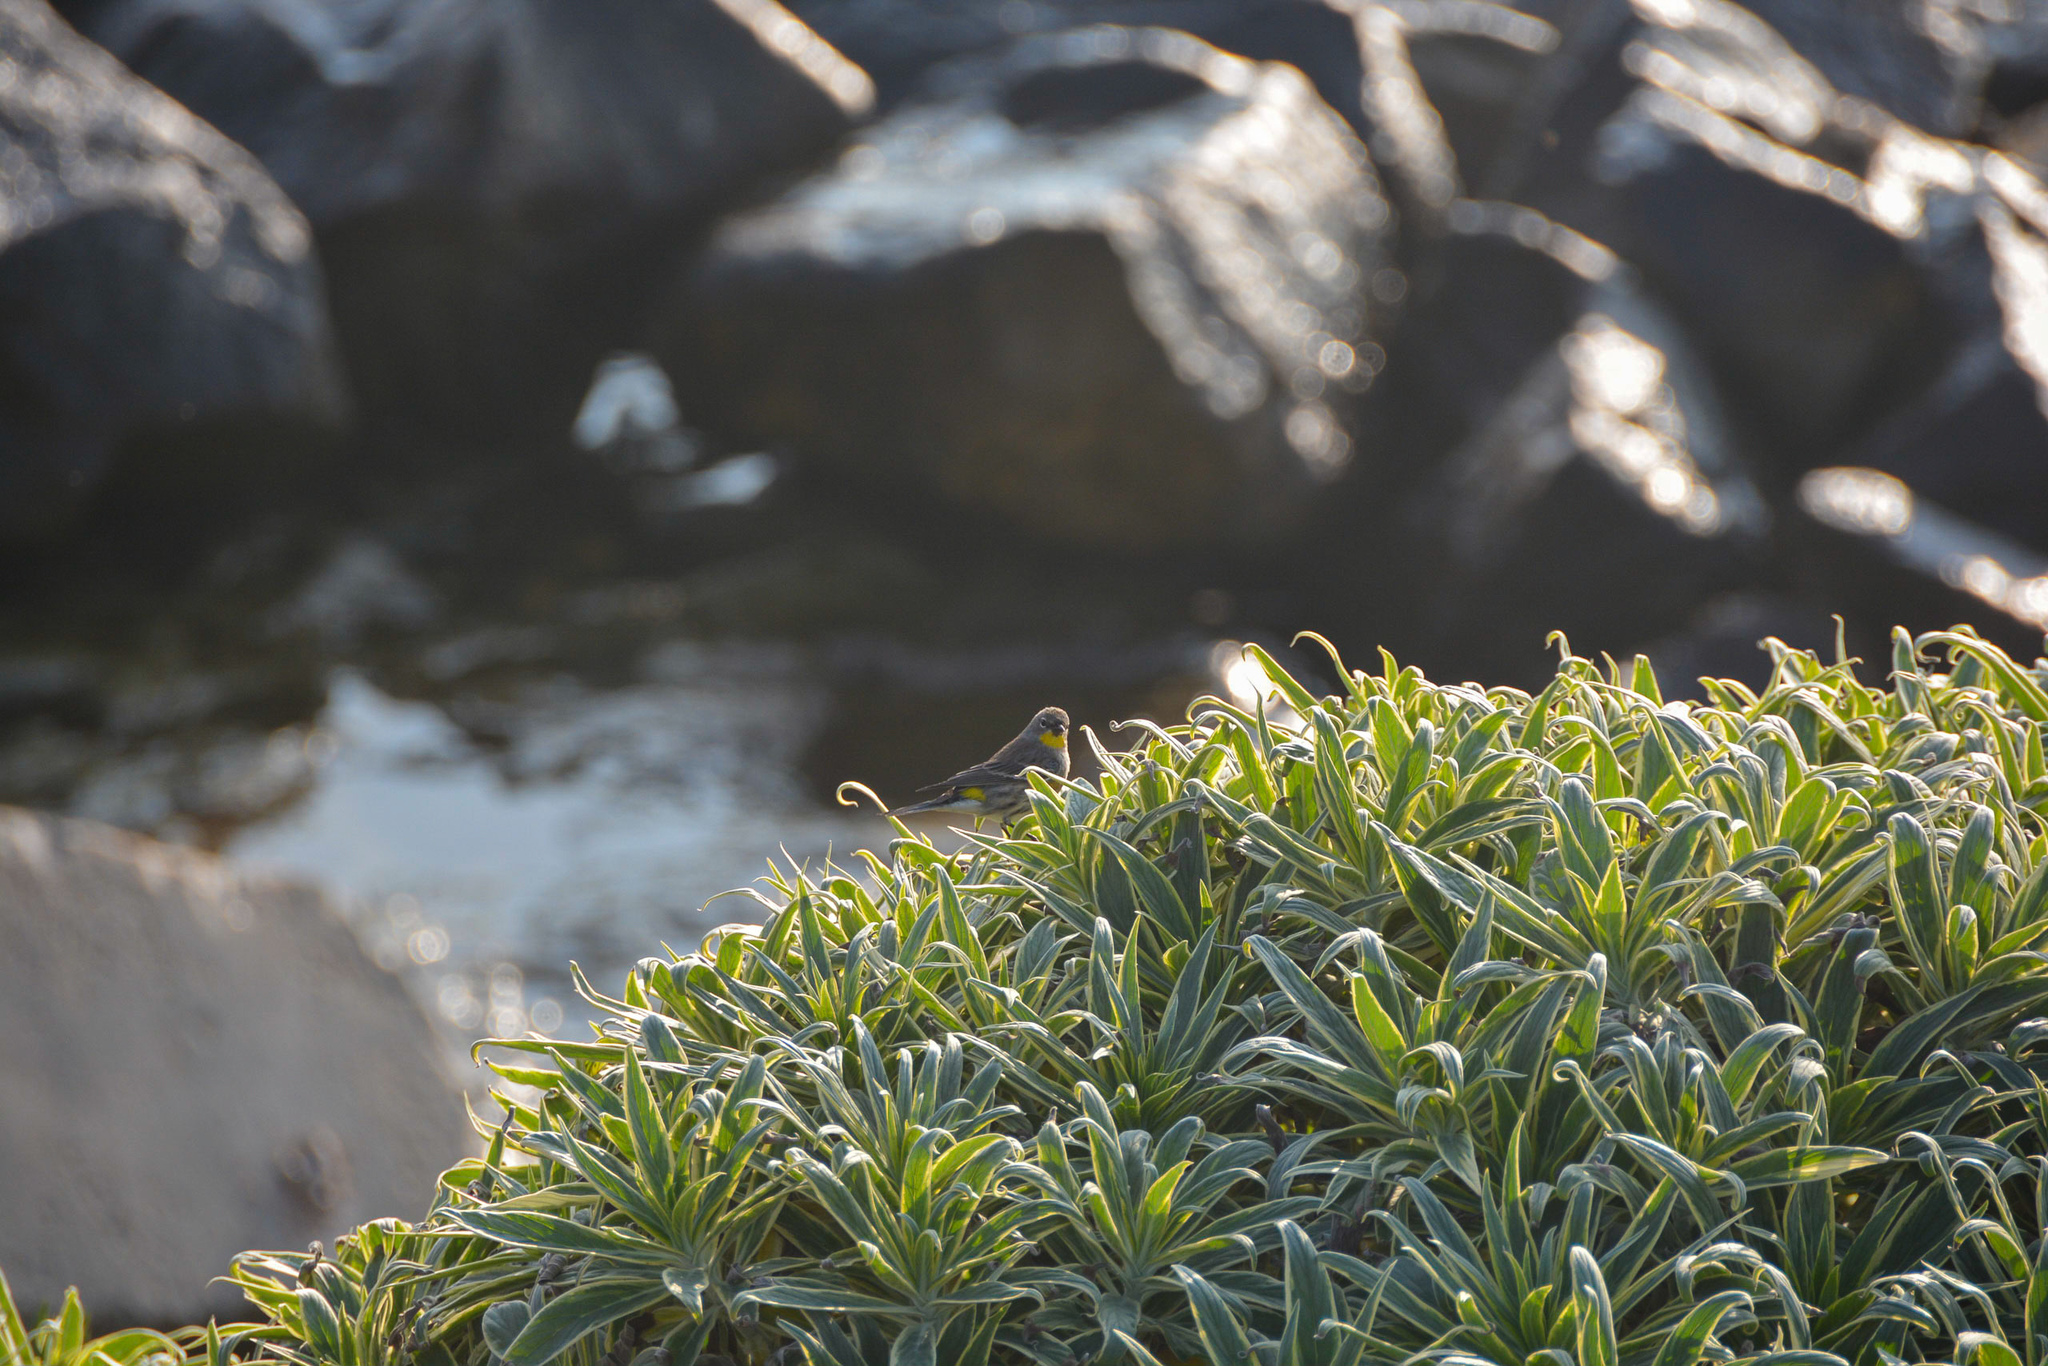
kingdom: Animalia
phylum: Chordata
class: Aves
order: Passeriformes
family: Parulidae
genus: Setophaga
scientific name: Setophaga coronata
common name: Myrtle warbler
